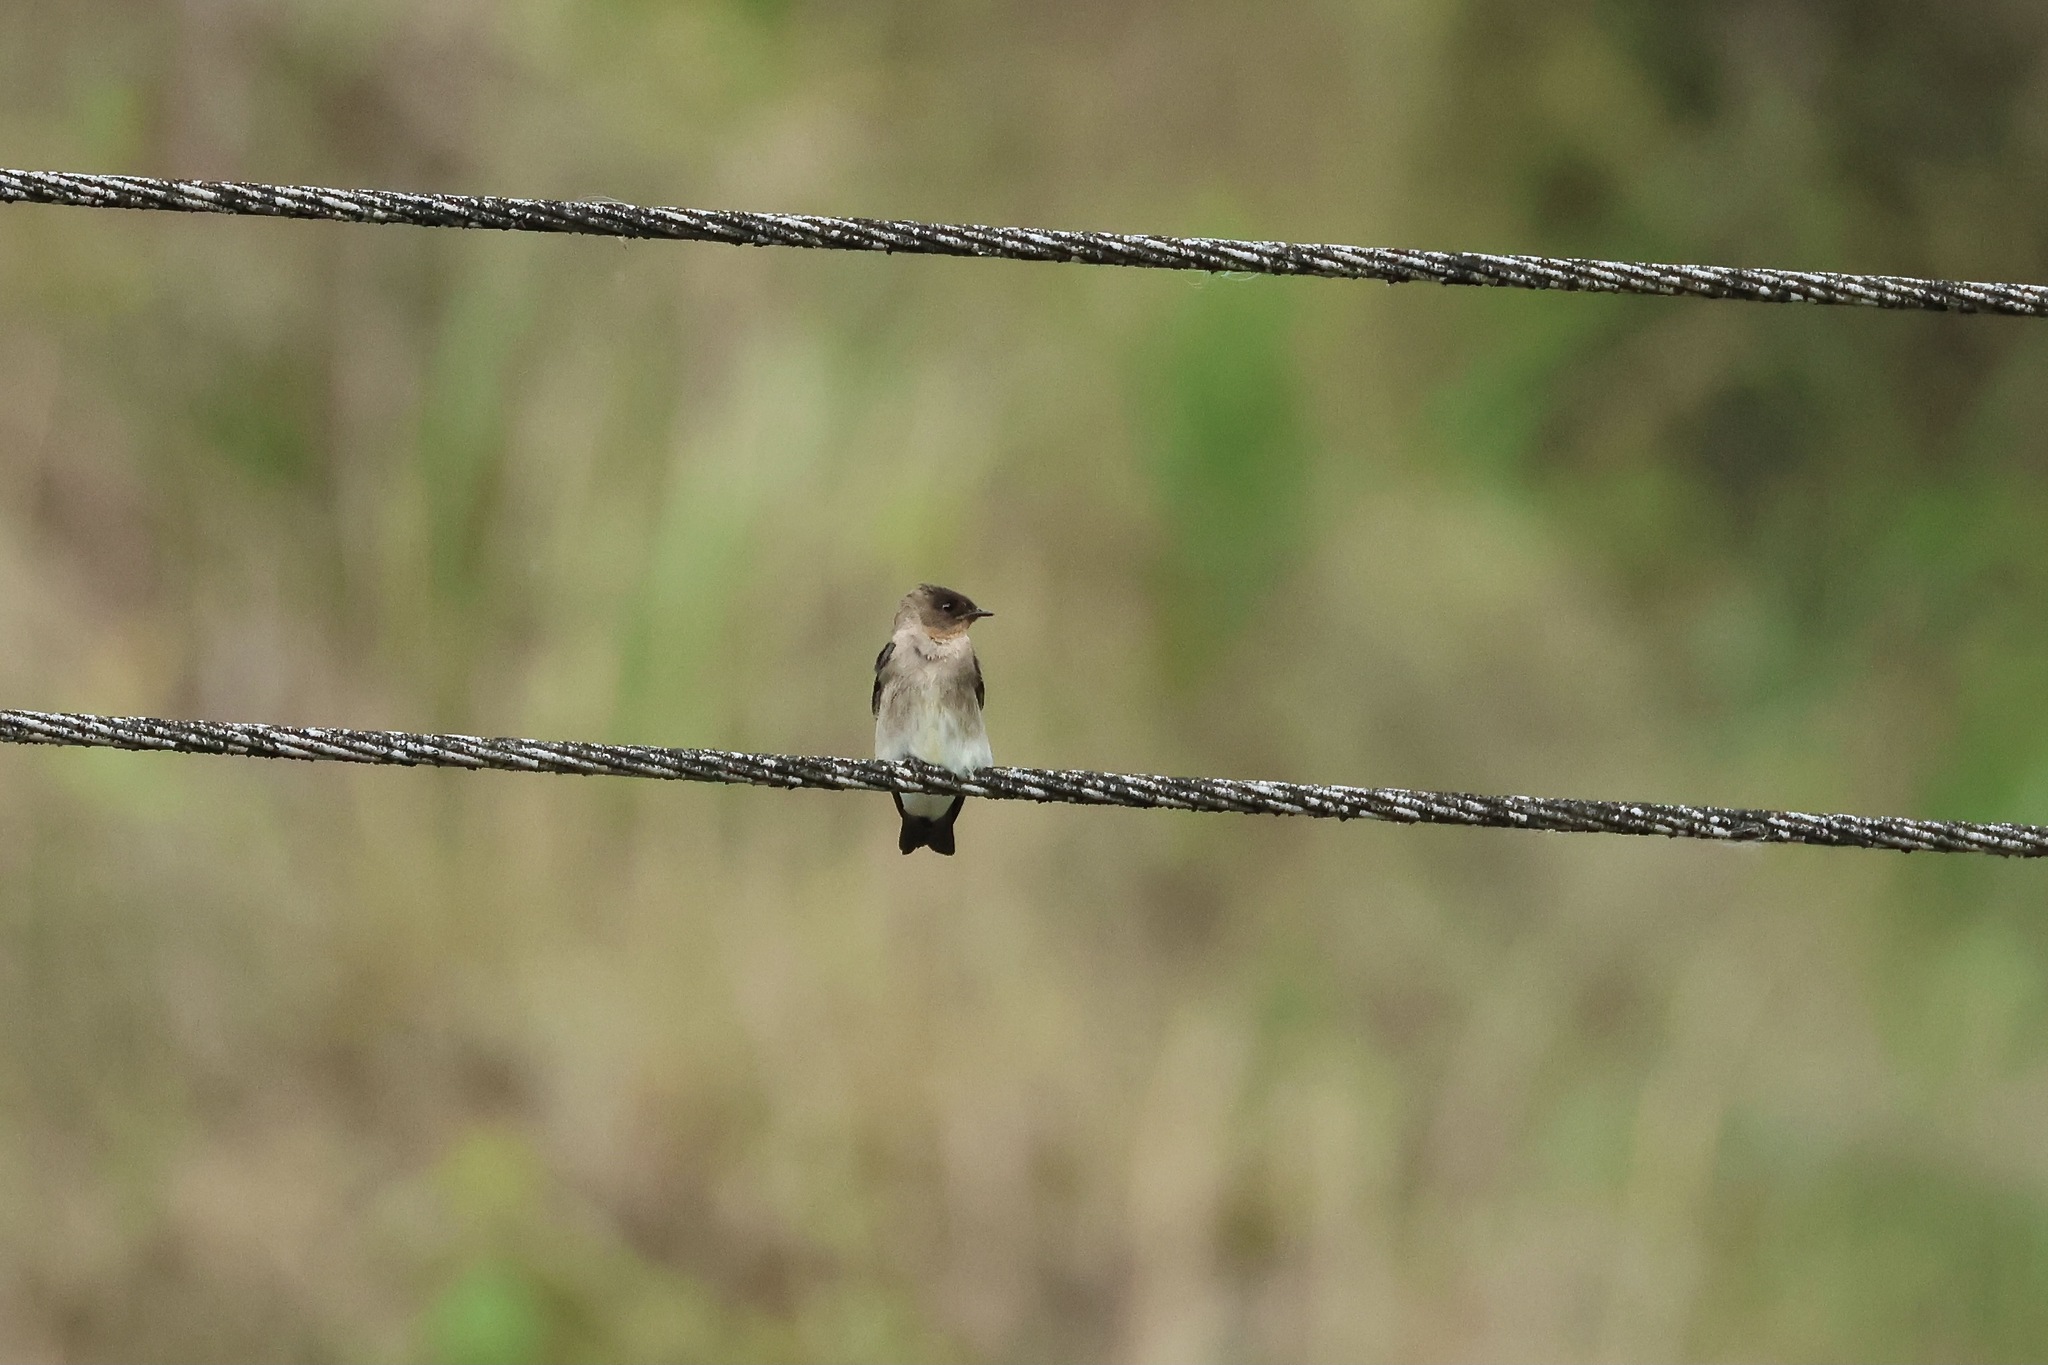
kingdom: Animalia
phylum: Chordata
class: Aves
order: Passeriformes
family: Hirundinidae
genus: Stelgidopteryx
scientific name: Stelgidopteryx ruficollis
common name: Southern rough-winged swallow
